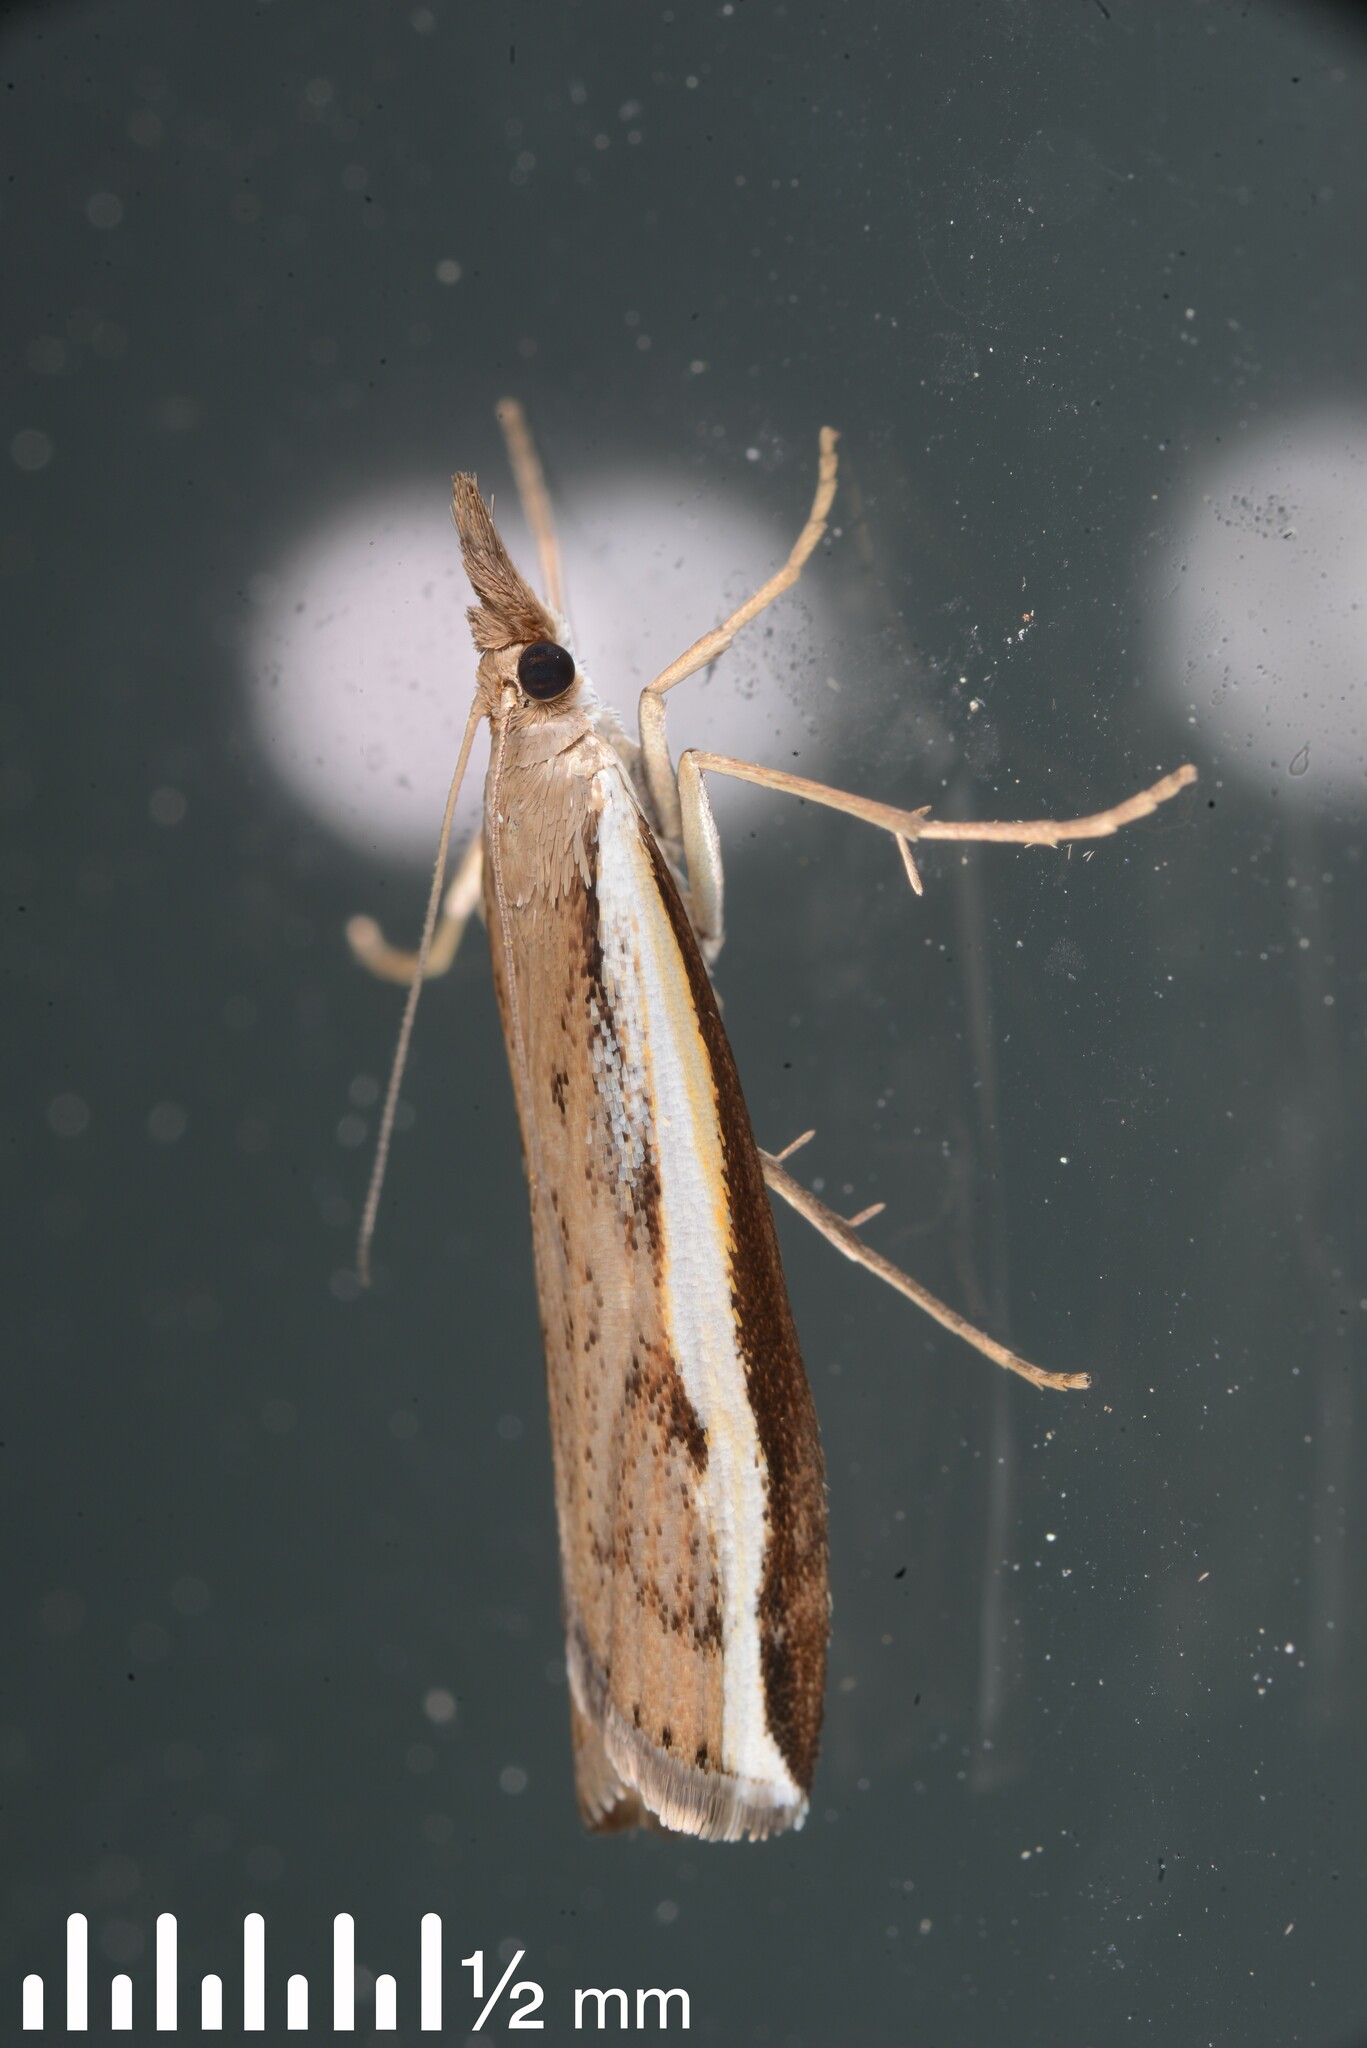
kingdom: Animalia
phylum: Arthropoda
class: Insecta
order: Lepidoptera
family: Crambidae
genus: Orocrambus
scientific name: Orocrambus flexuosellus
